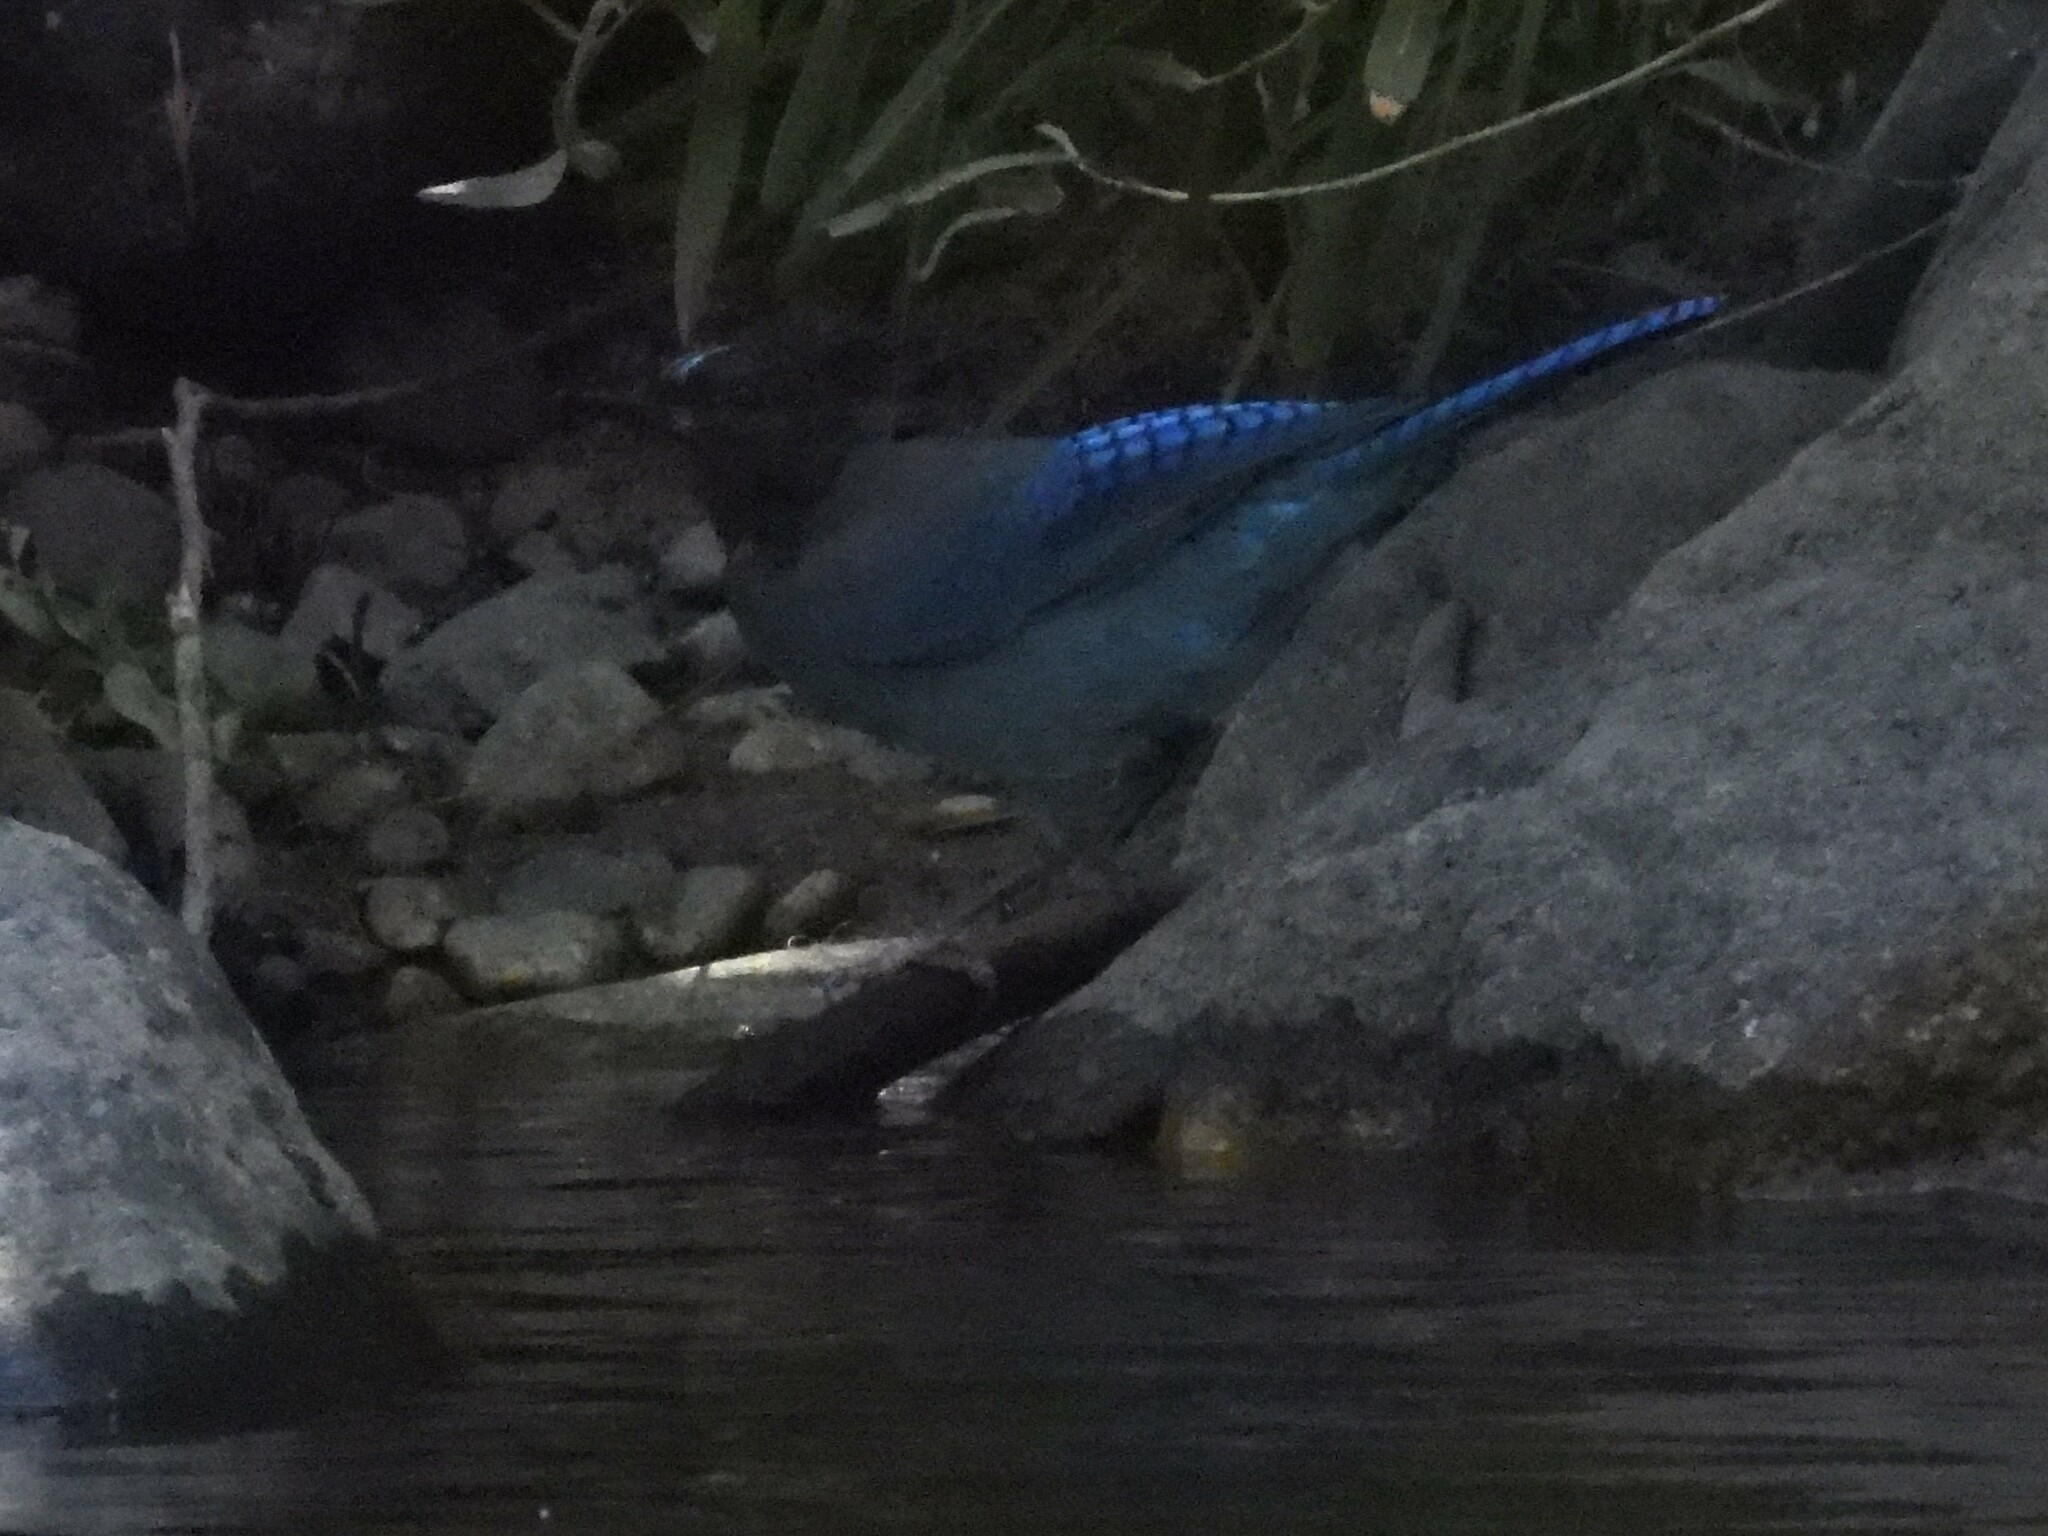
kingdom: Animalia
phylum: Chordata
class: Aves
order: Passeriformes
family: Corvidae
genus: Cyanocitta
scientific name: Cyanocitta stelleri
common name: Steller's jay
